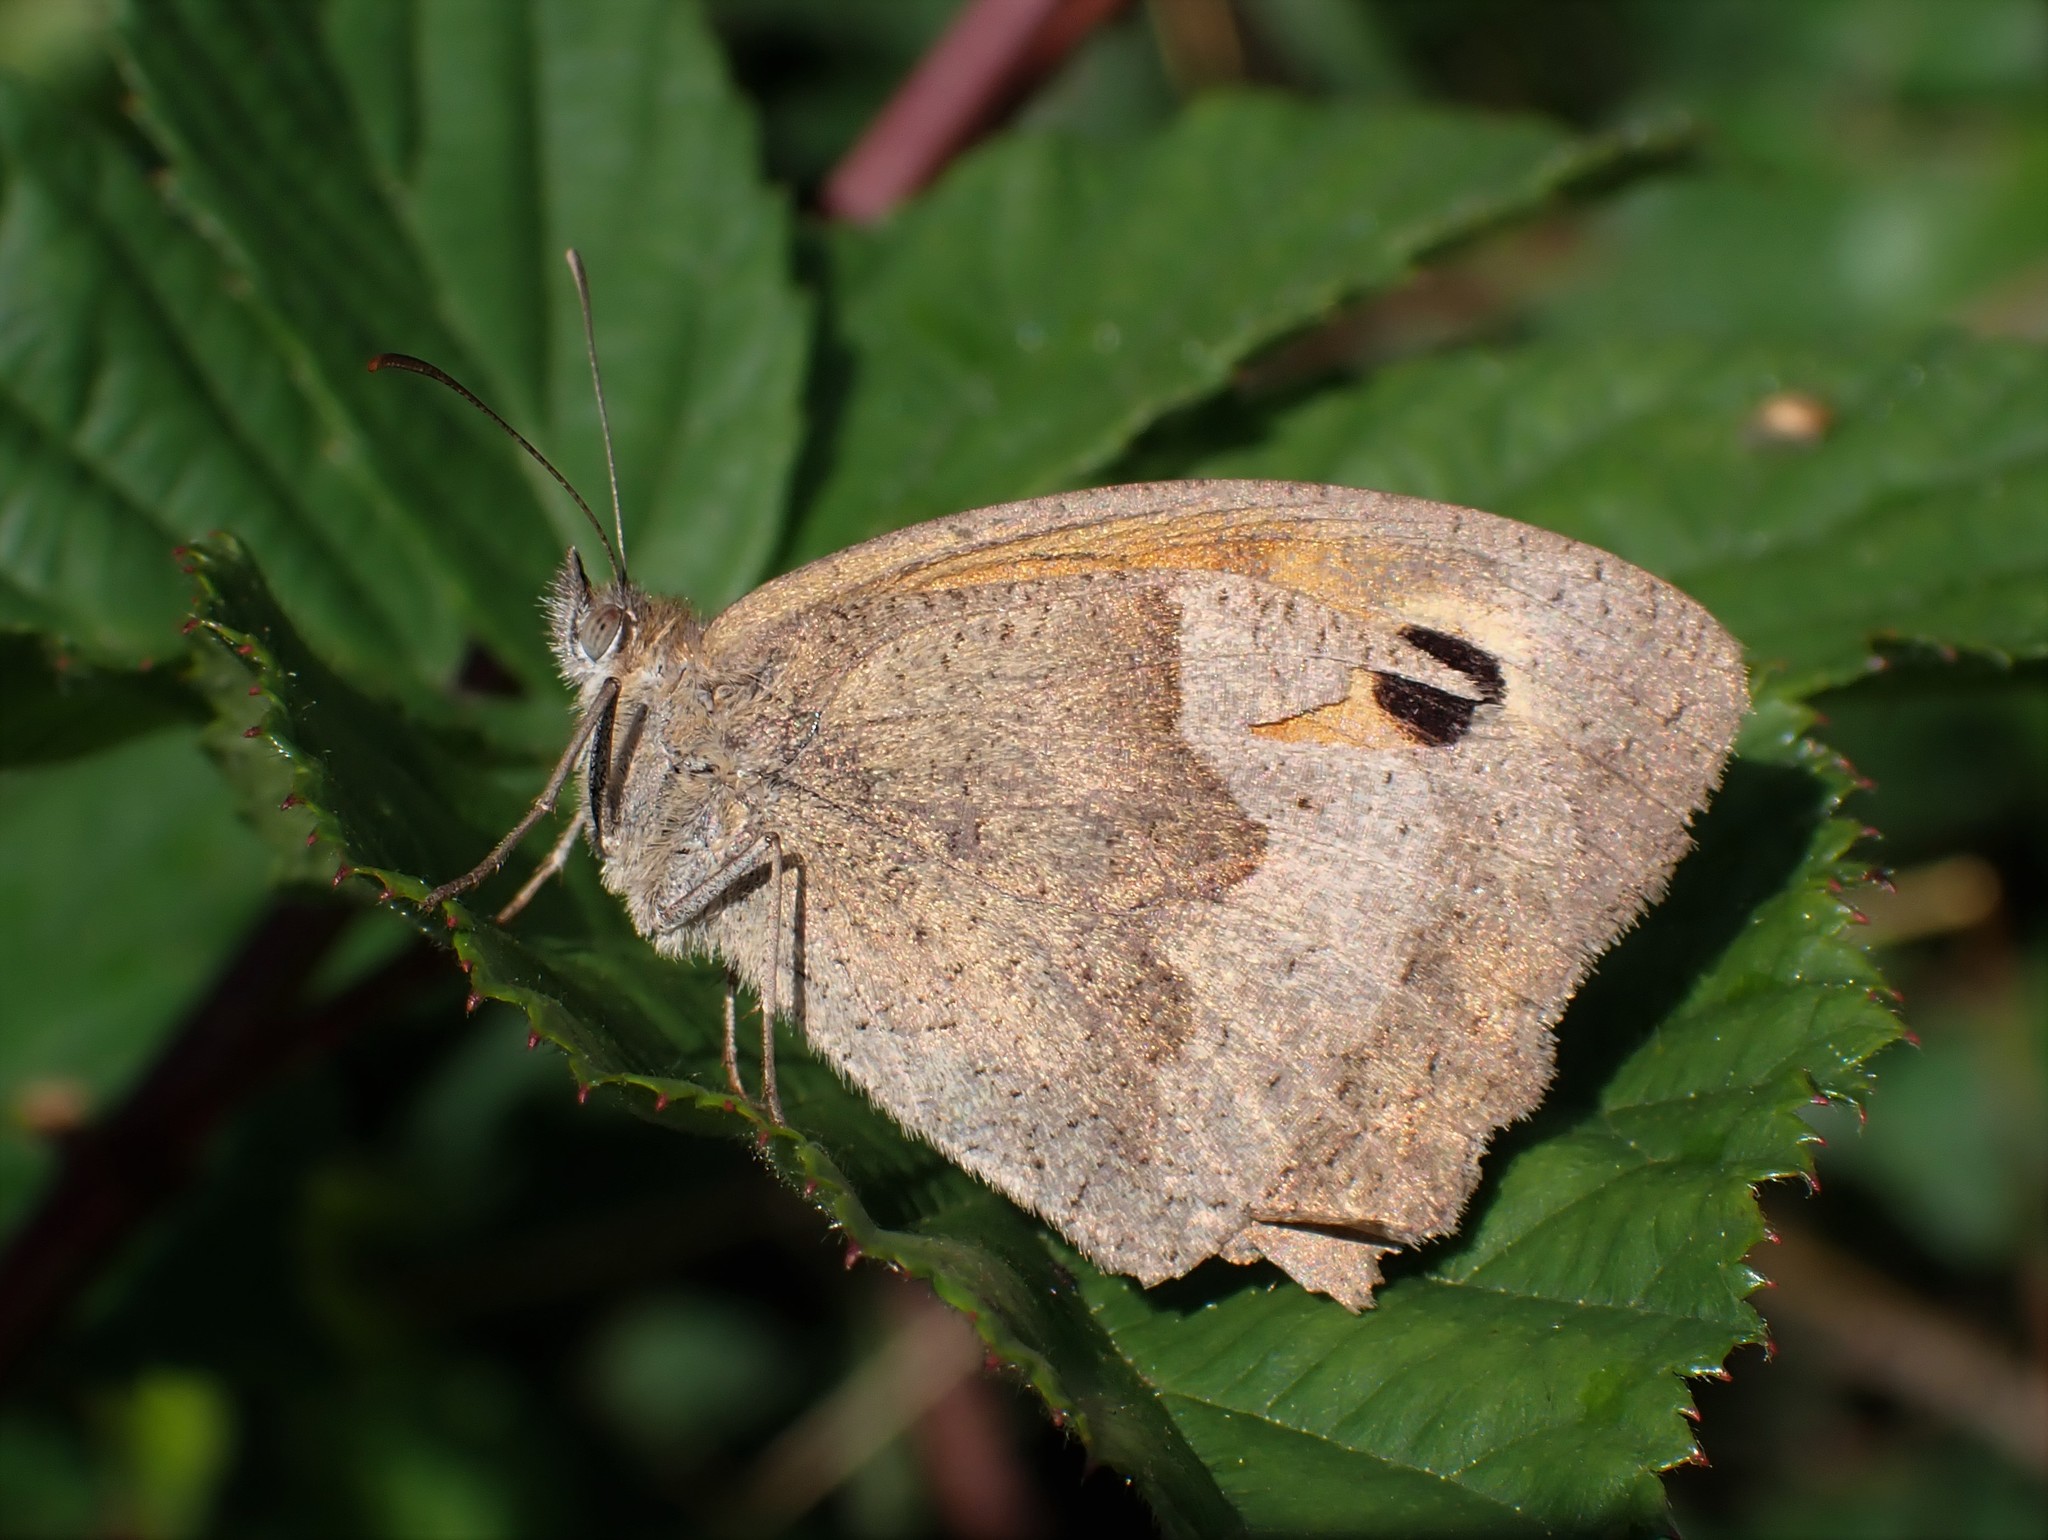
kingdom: Animalia
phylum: Arthropoda
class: Insecta
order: Lepidoptera
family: Nymphalidae
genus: Maniola
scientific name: Maniola jurtina
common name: Meadow brown
